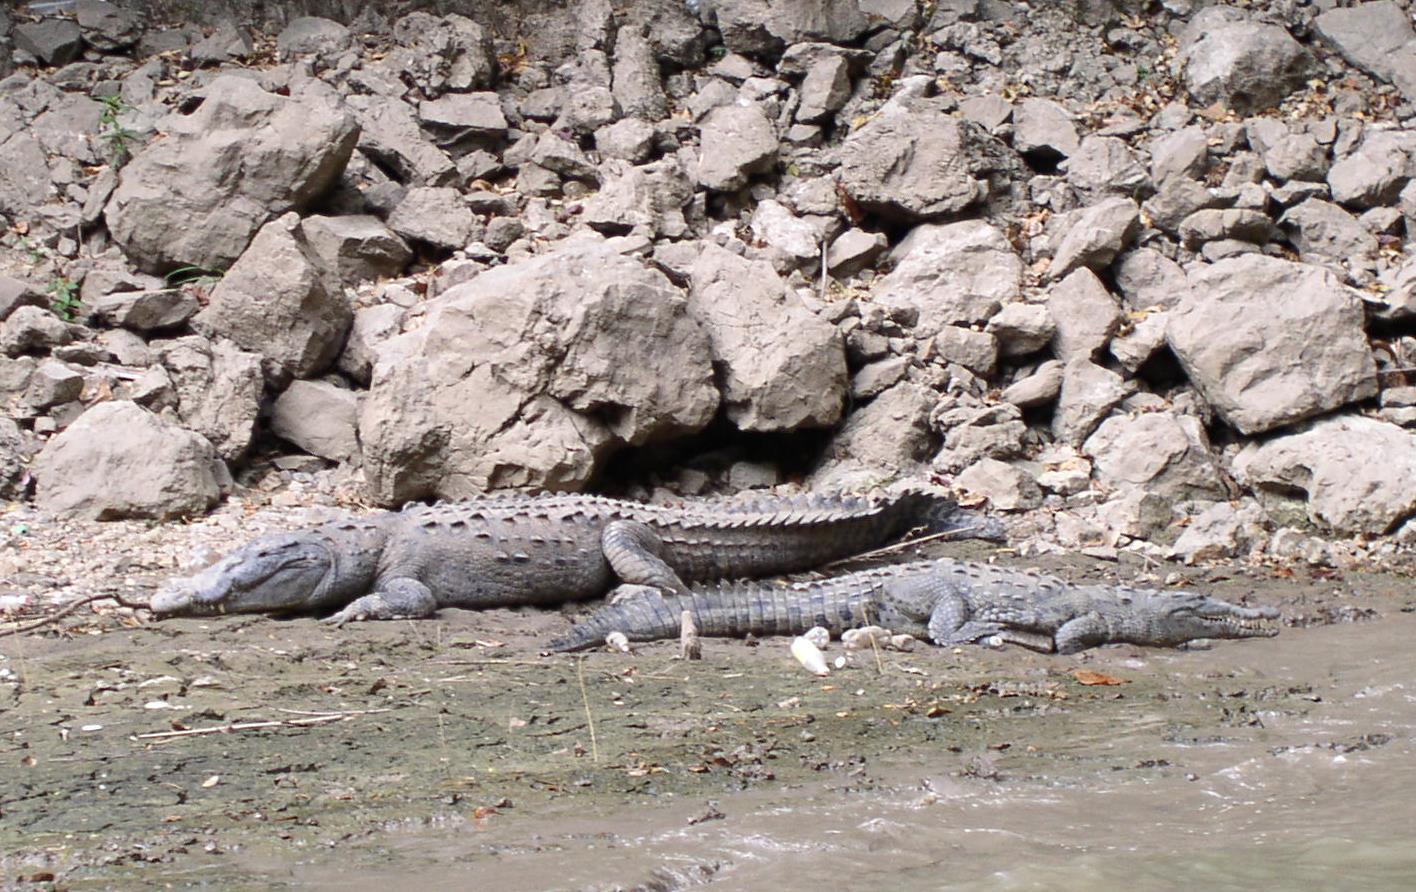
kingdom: Animalia
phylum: Chordata
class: Crocodylia
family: Crocodylidae
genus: Crocodylus
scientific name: Crocodylus acutus
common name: American crocodile
